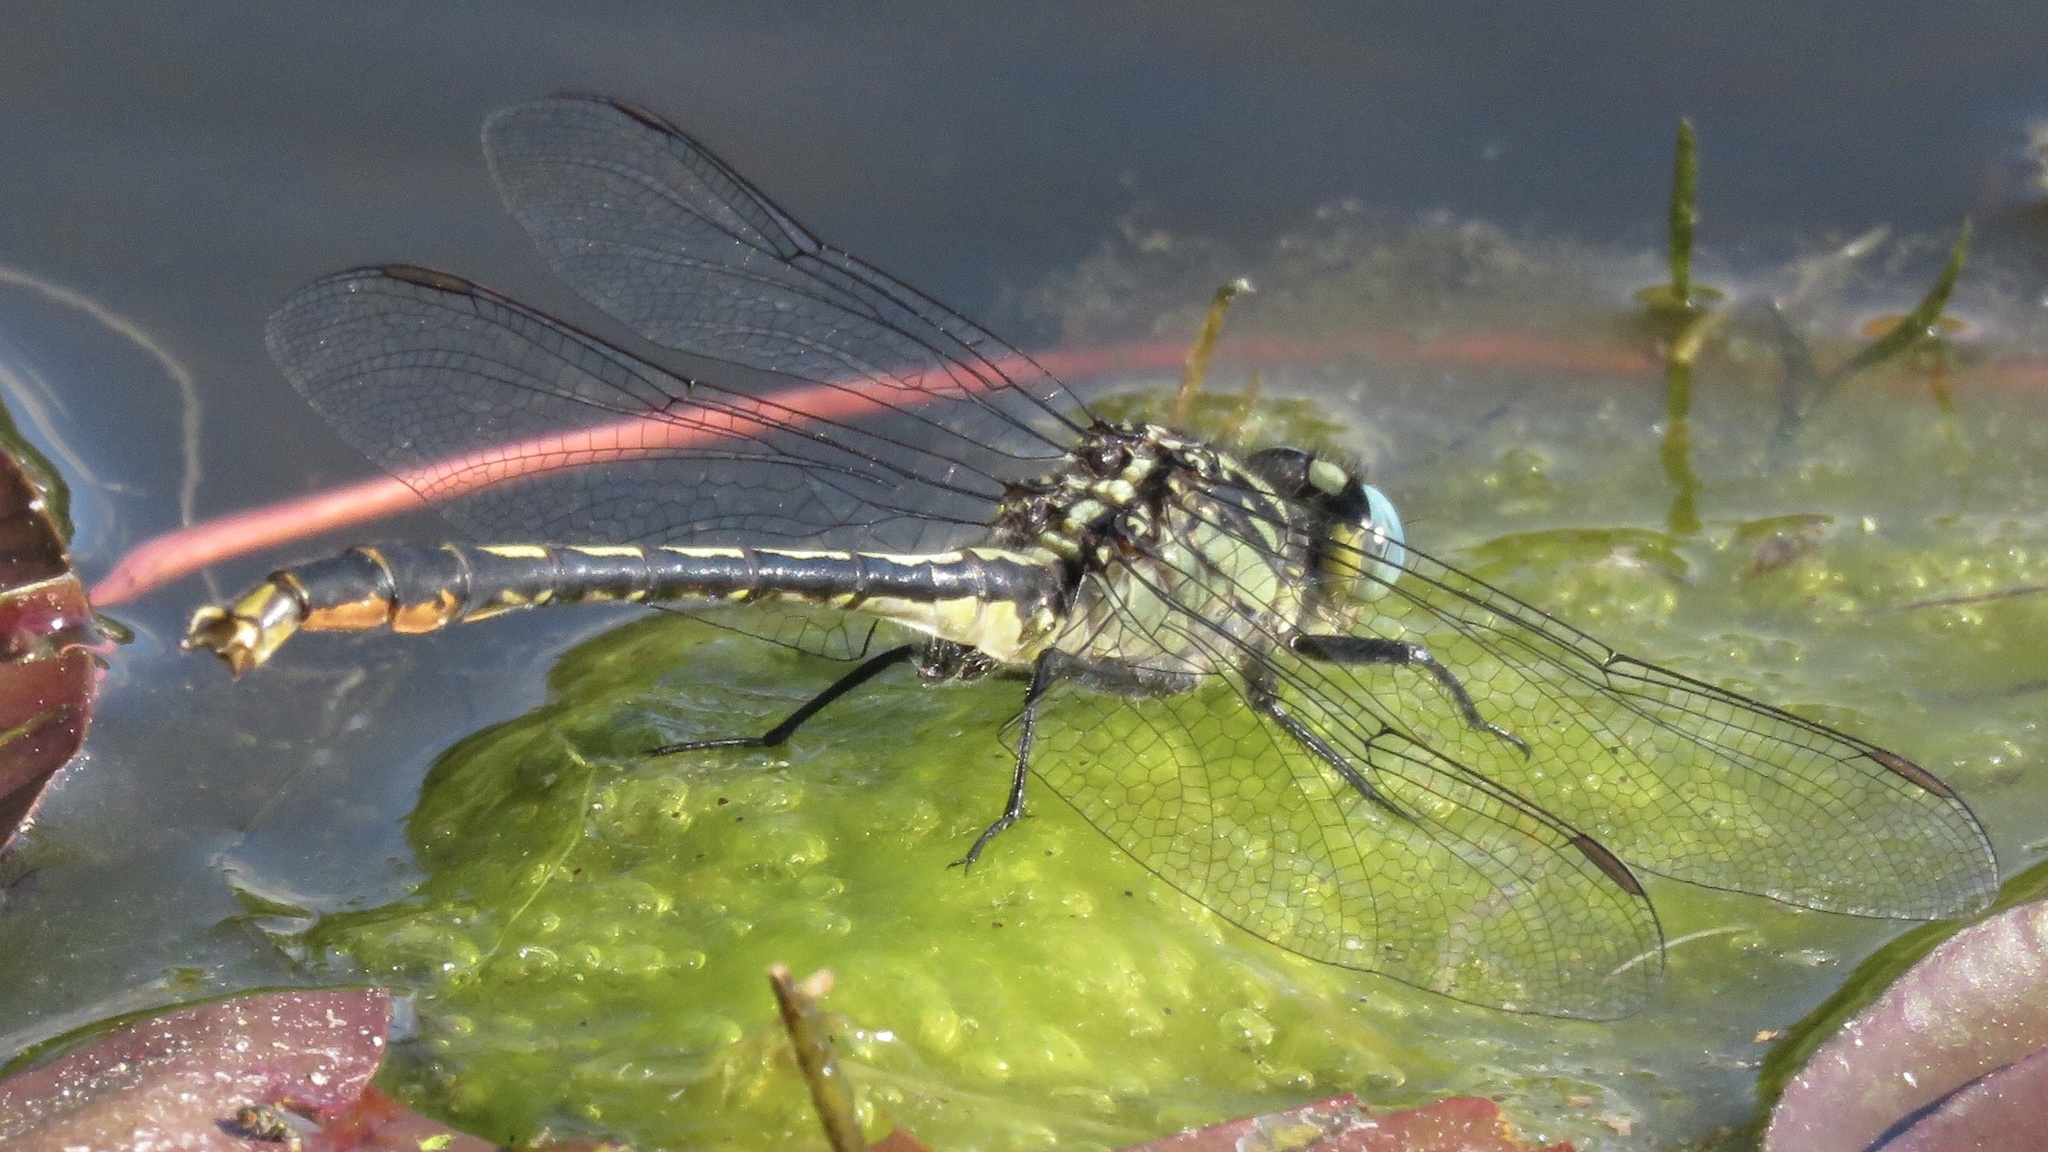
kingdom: Animalia
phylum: Arthropoda
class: Insecta
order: Odonata
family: Gomphidae
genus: Arigomphus
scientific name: Arigomphus furcifer
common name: Lilypad clubtail
